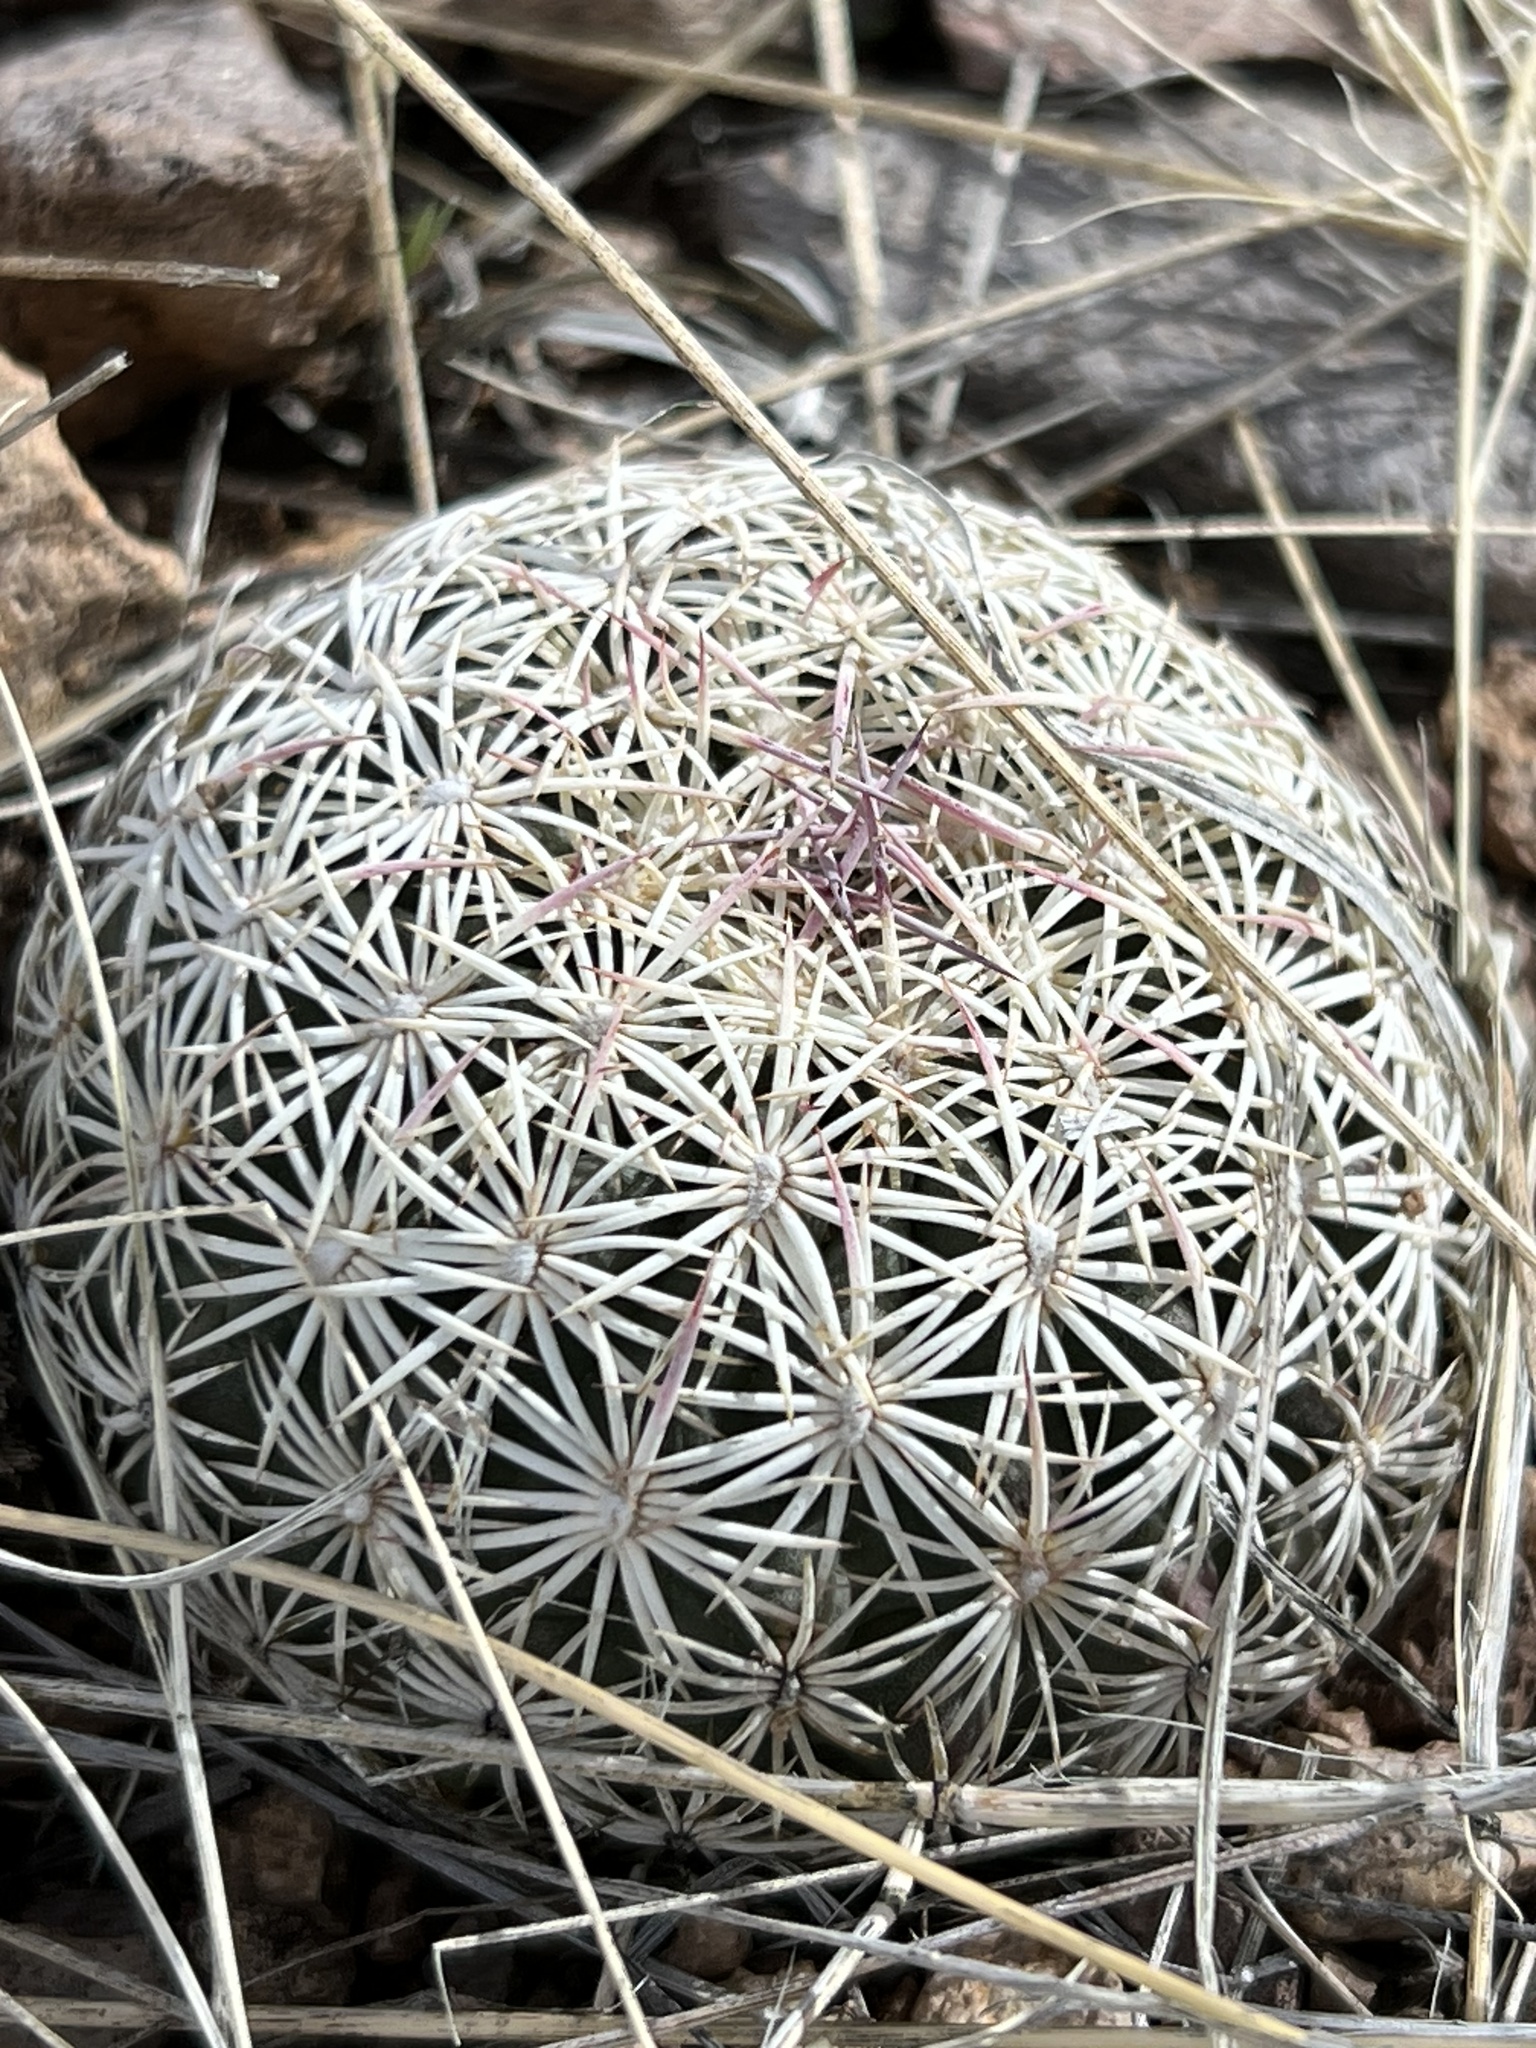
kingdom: Plantae
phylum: Tracheophyta
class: Magnoliopsida
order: Caryophyllales
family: Cactaceae
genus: Sclerocactus
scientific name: Sclerocactus johnsonii
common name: Eight-spine fishhook cactus
